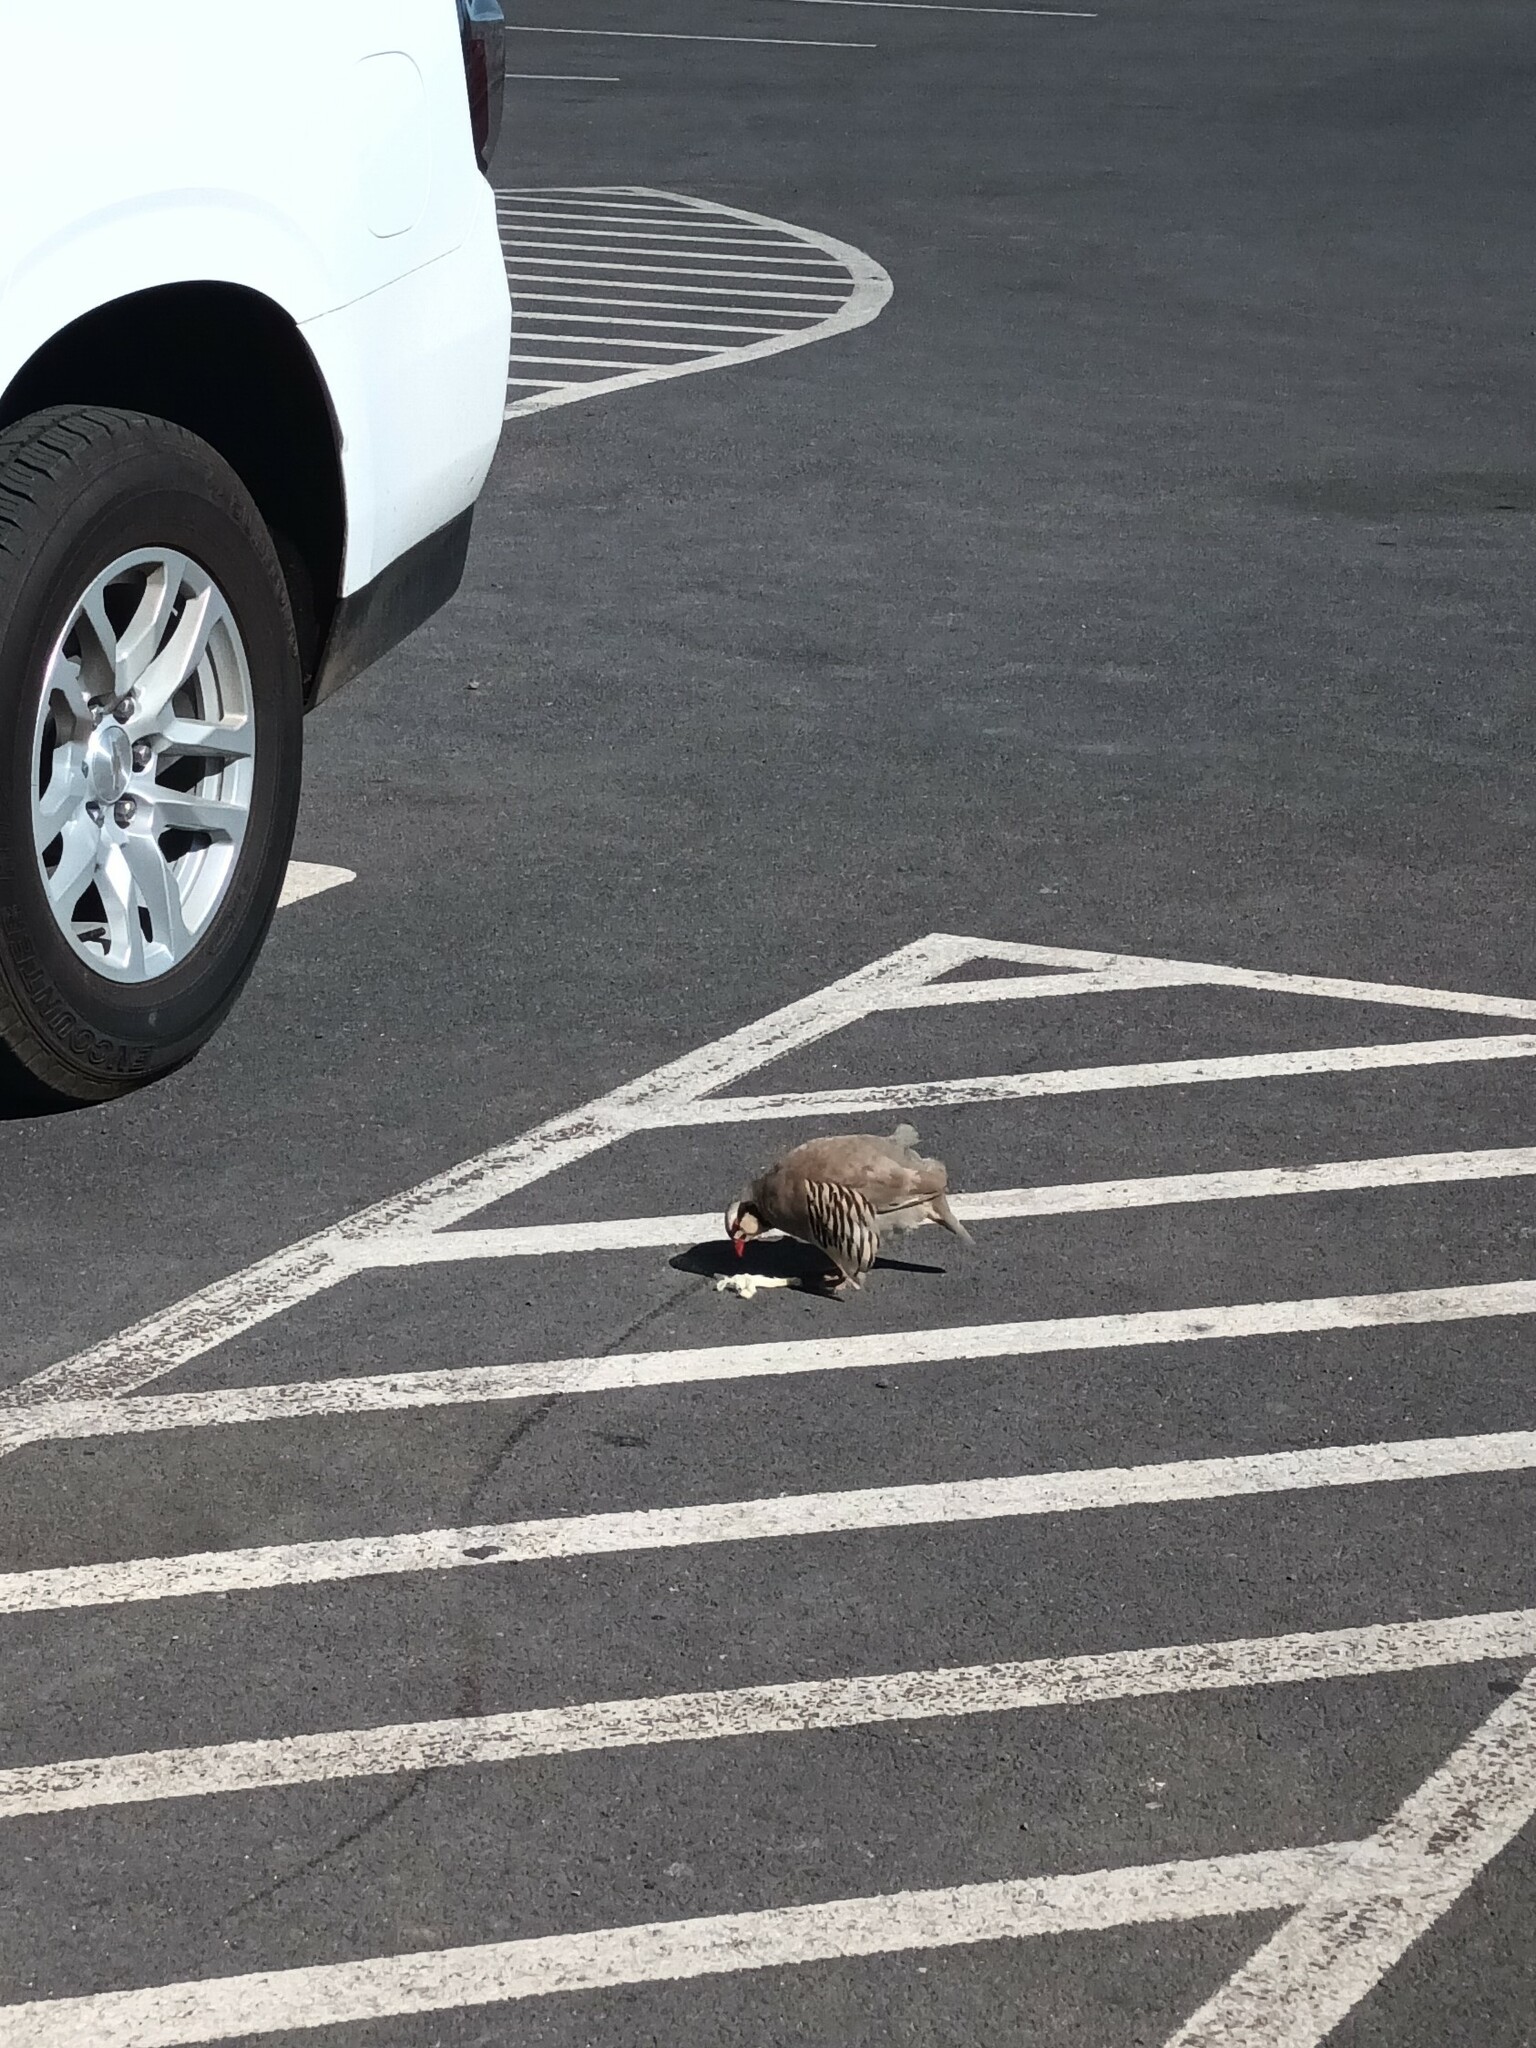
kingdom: Animalia
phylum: Chordata
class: Aves
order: Galliformes
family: Phasianidae
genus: Alectoris
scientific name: Alectoris chukar
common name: Chukar
